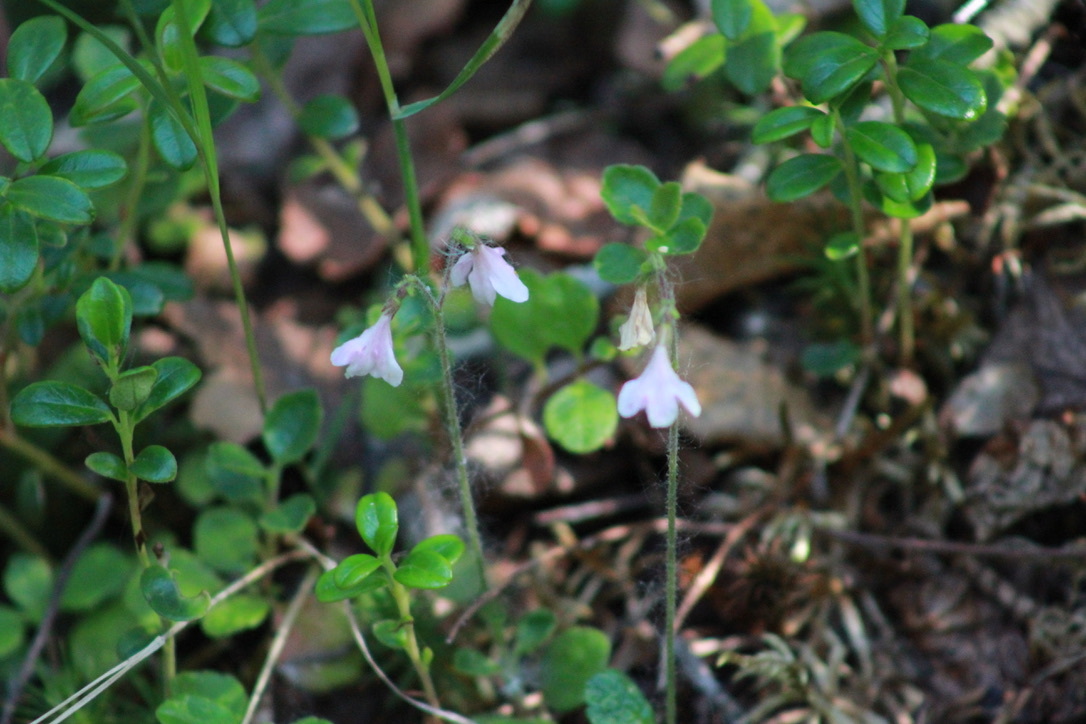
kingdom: Plantae
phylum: Tracheophyta
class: Magnoliopsida
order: Dipsacales
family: Caprifoliaceae
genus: Linnaea
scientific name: Linnaea borealis
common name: Twinflower
